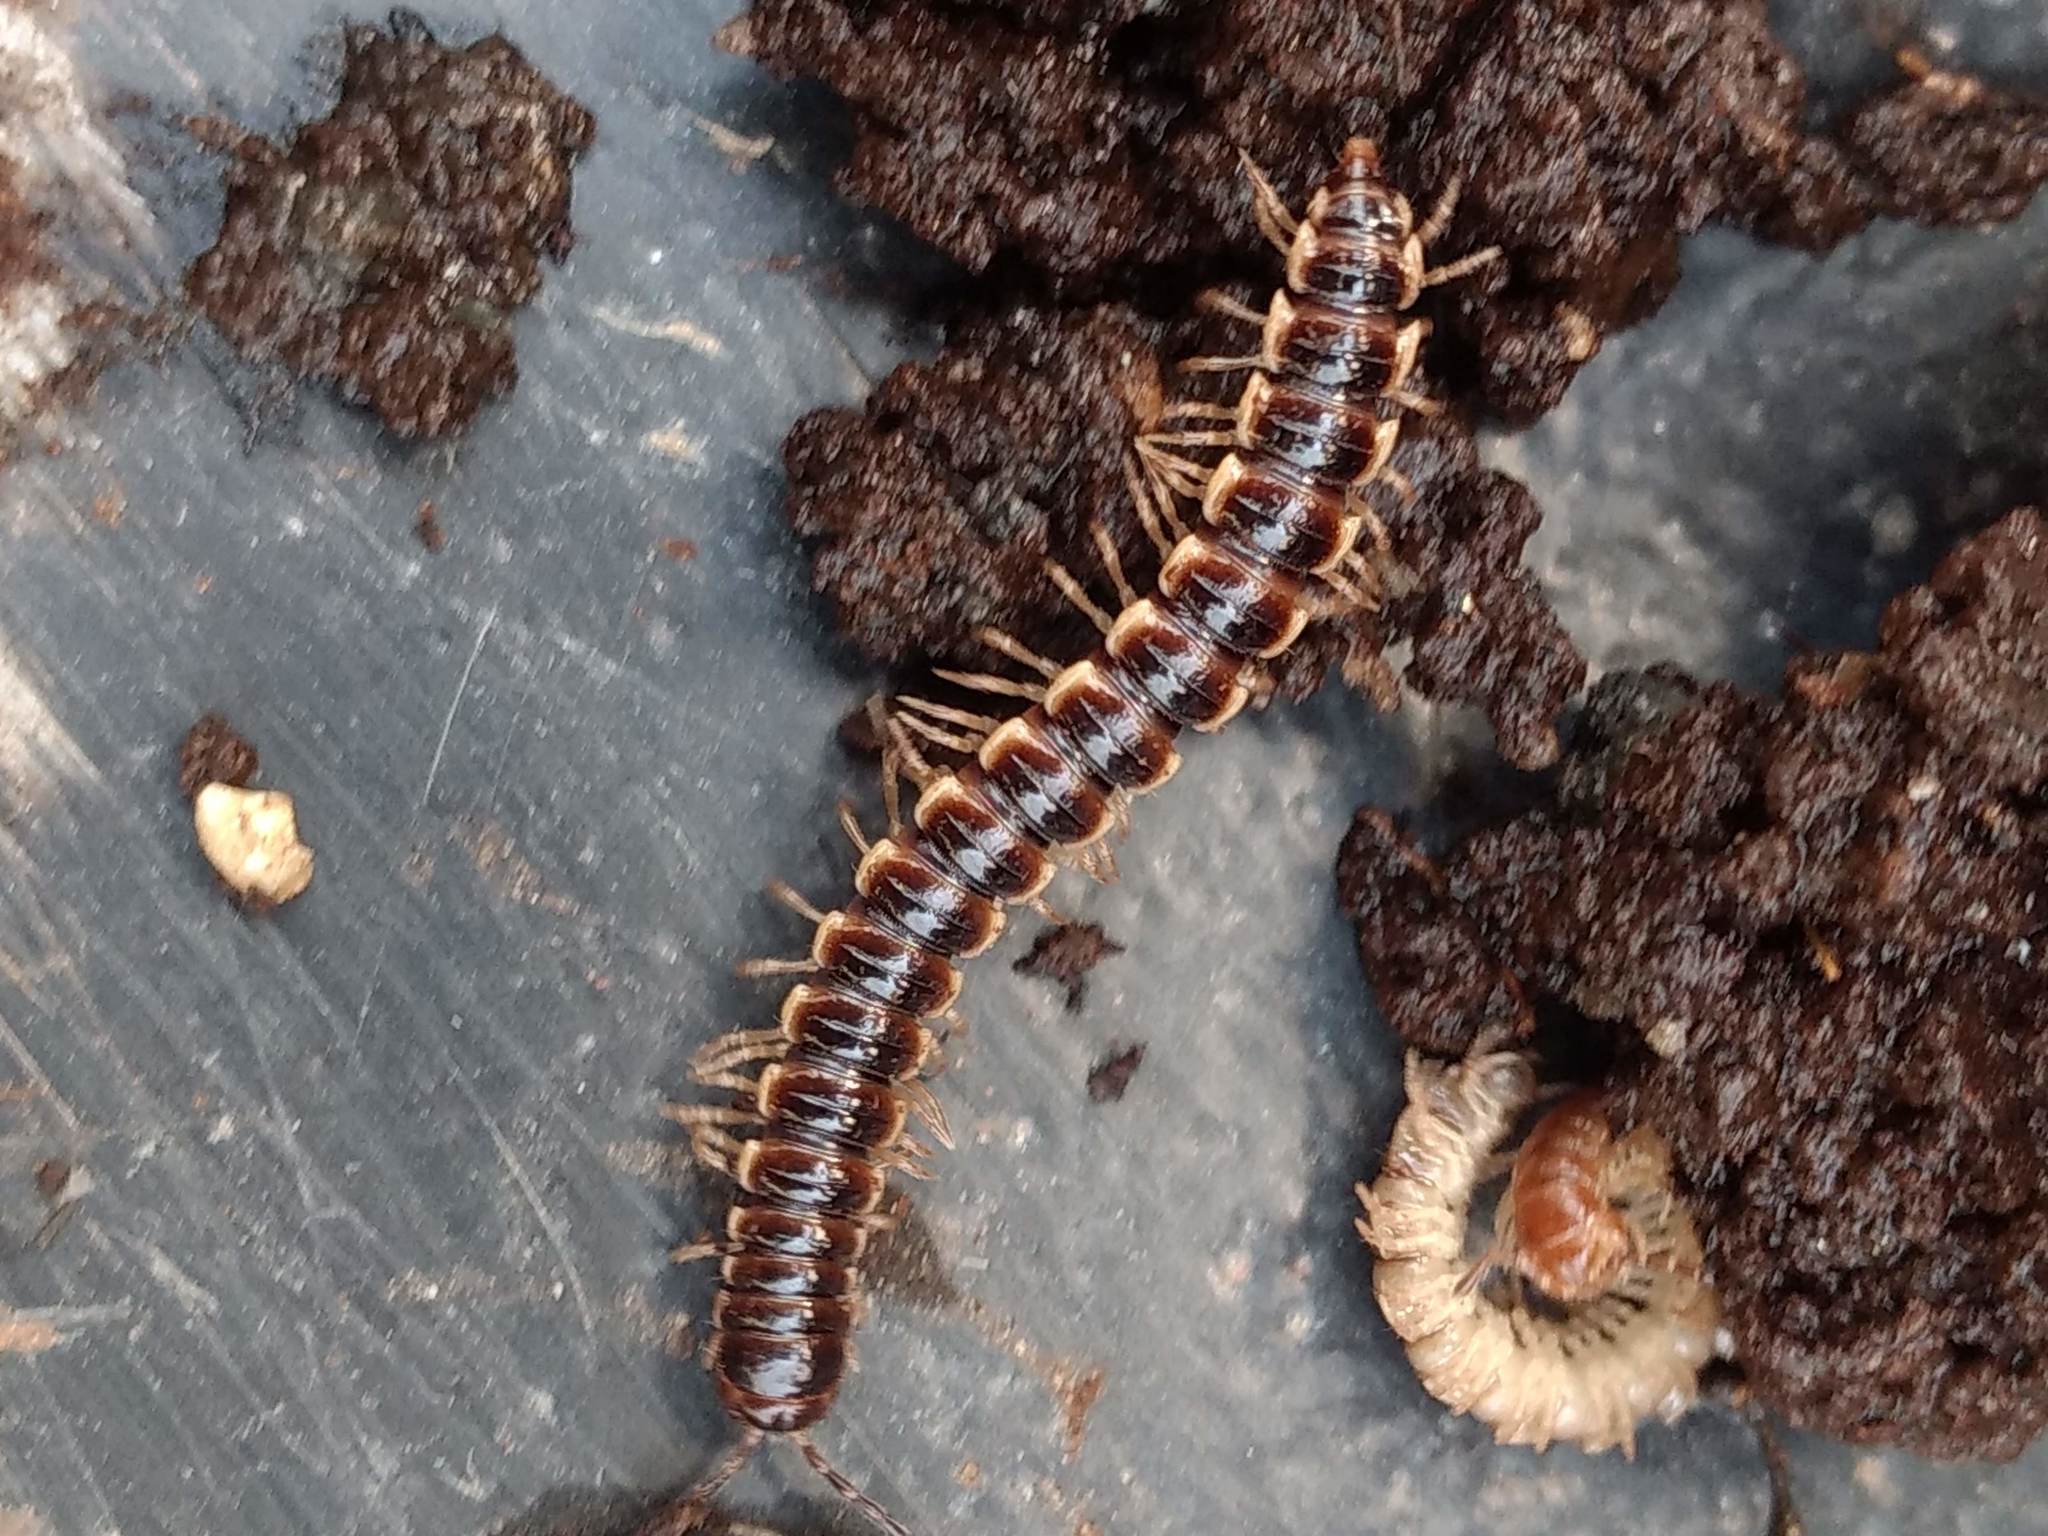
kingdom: Animalia
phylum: Arthropoda
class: Diplopoda
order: Polydesmida
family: Paradoxosomatidae
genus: Oxidus
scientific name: Oxidus gracilis
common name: Greenhouse millipede
